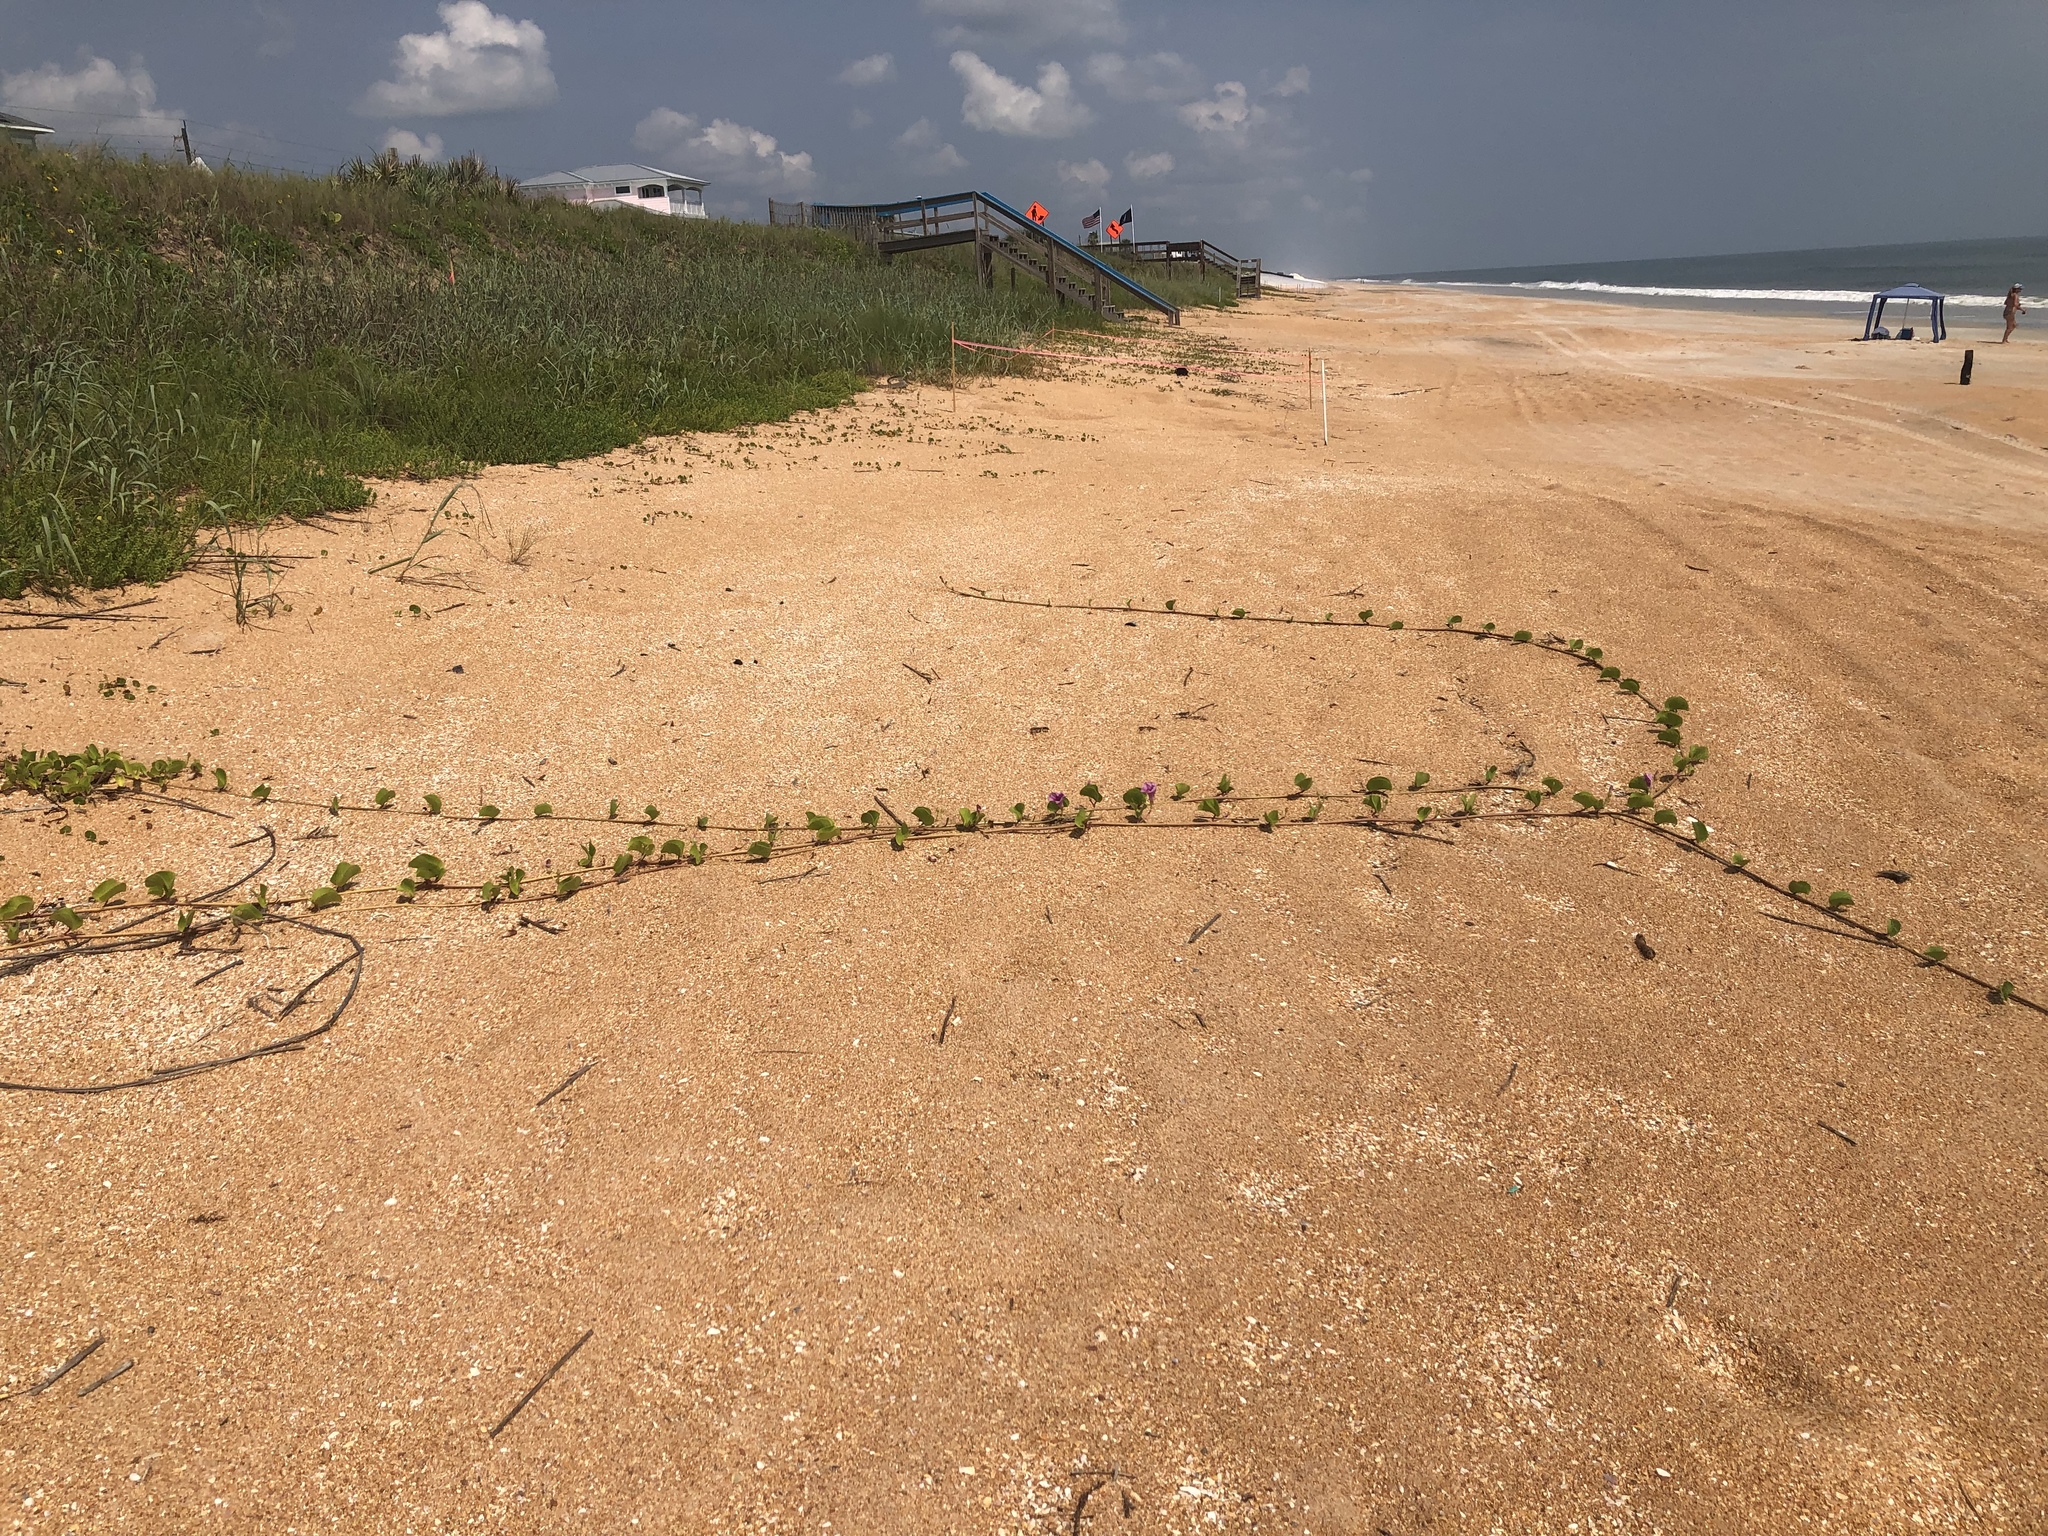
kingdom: Plantae
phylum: Tracheophyta
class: Magnoliopsida
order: Solanales
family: Convolvulaceae
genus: Ipomoea
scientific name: Ipomoea pes-caprae
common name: Beach morning glory
